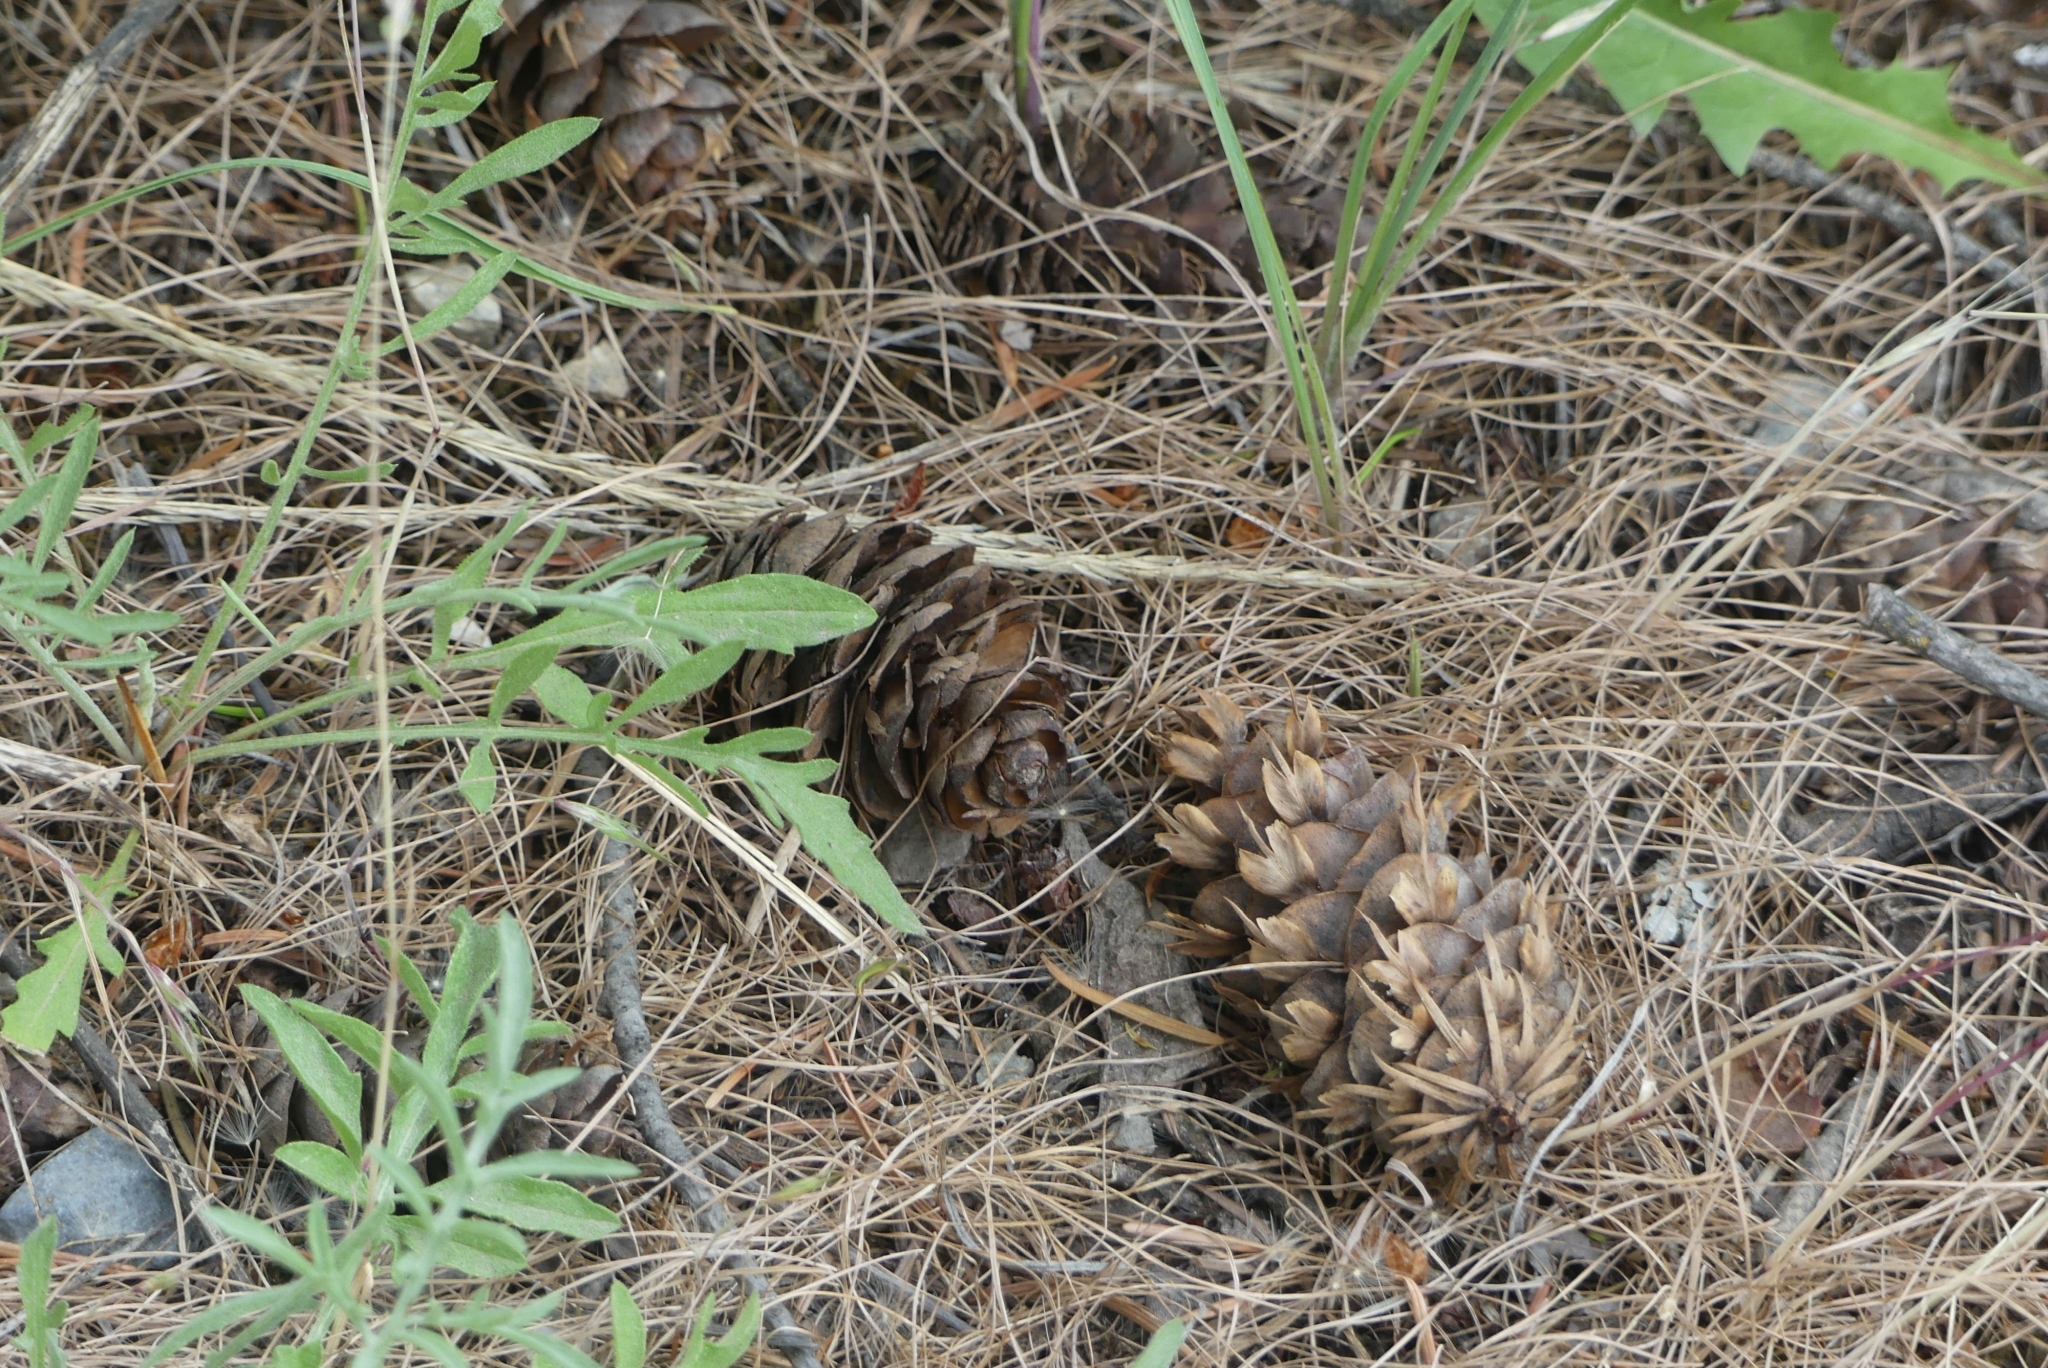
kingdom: Plantae
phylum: Tracheophyta
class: Pinopsida
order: Pinales
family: Pinaceae
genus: Pseudotsuga
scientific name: Pseudotsuga menziesii
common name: Douglas fir
